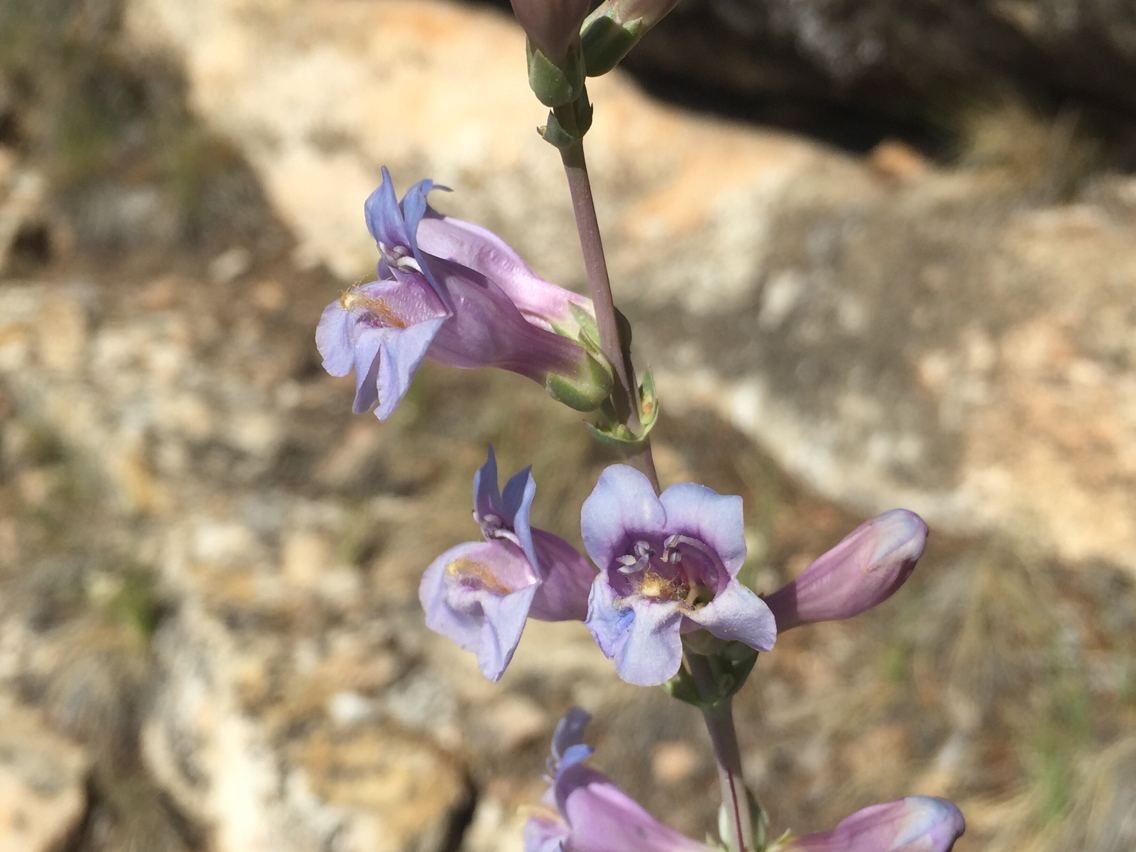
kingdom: Plantae
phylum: Tracheophyta
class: Magnoliopsida
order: Lamiales
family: Plantaginaceae
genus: Penstemon
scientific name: Penstemon pachyphyllus
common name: Thick-leaf penstemon
